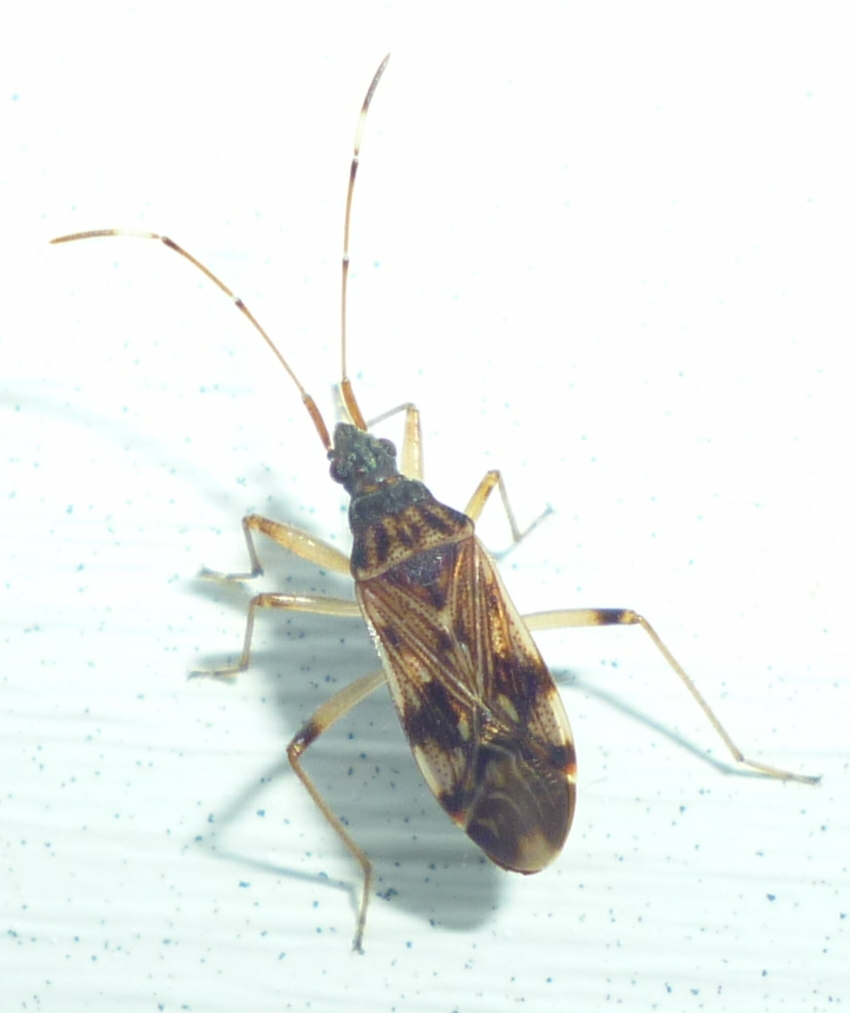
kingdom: Animalia
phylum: Arthropoda
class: Insecta
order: Hemiptera
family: Rhyparochromidae
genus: Ozophora
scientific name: Ozophora picturata
